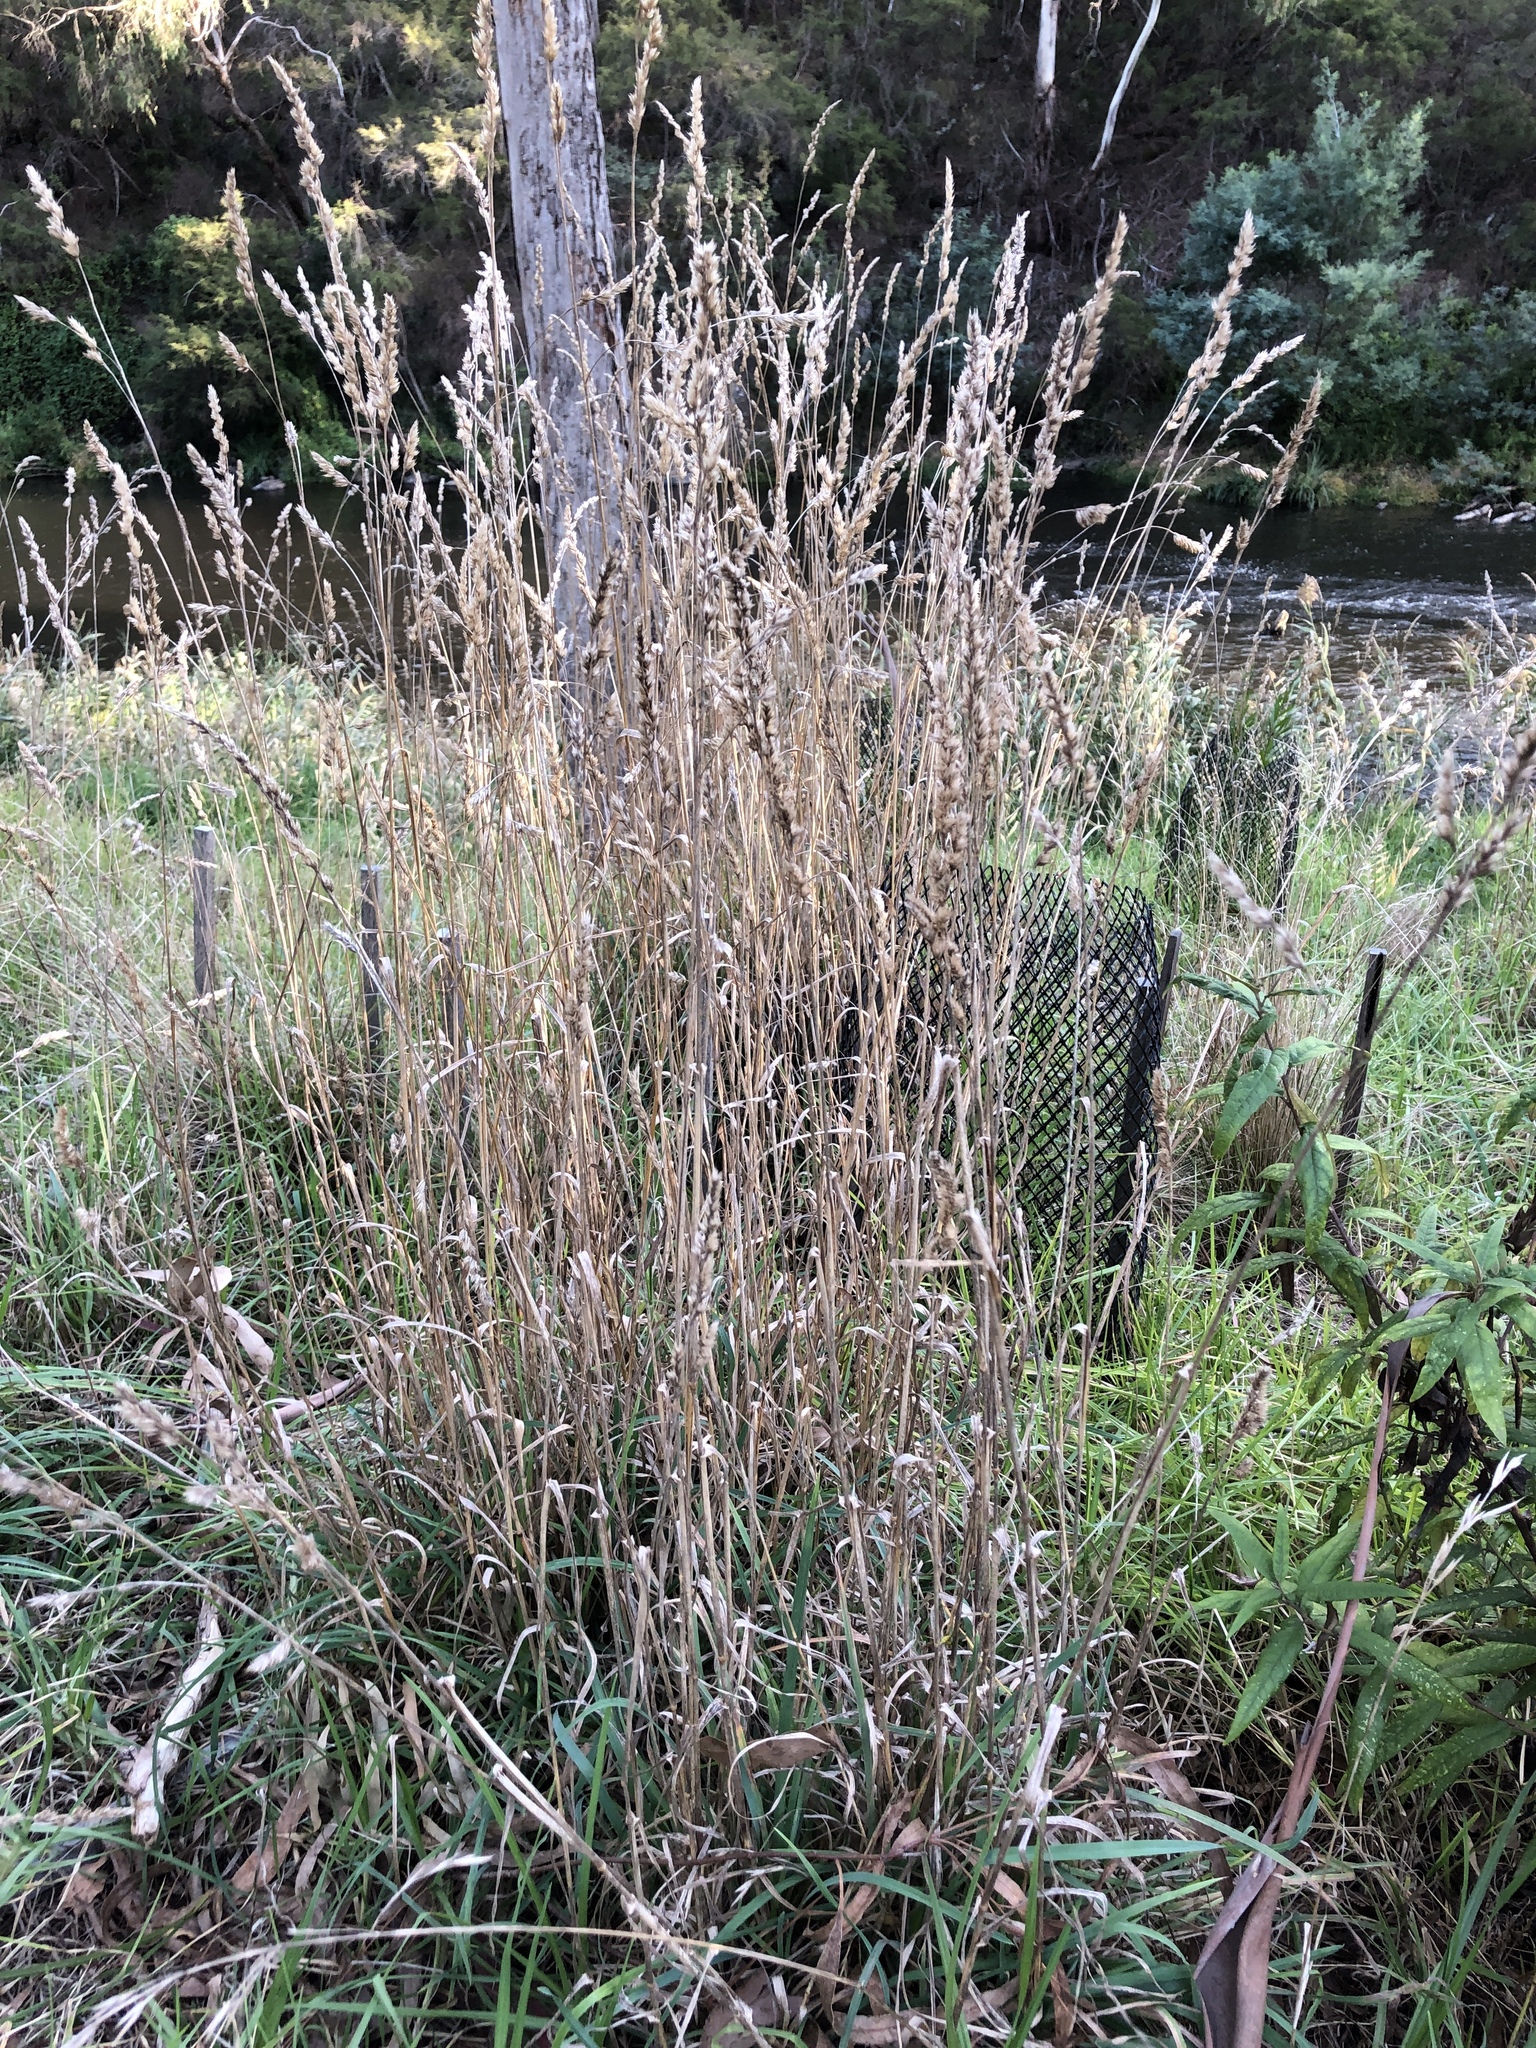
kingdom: Plantae
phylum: Tracheophyta
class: Liliopsida
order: Poales
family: Poaceae
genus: Dactylis
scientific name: Dactylis glomerata
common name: Orchardgrass
